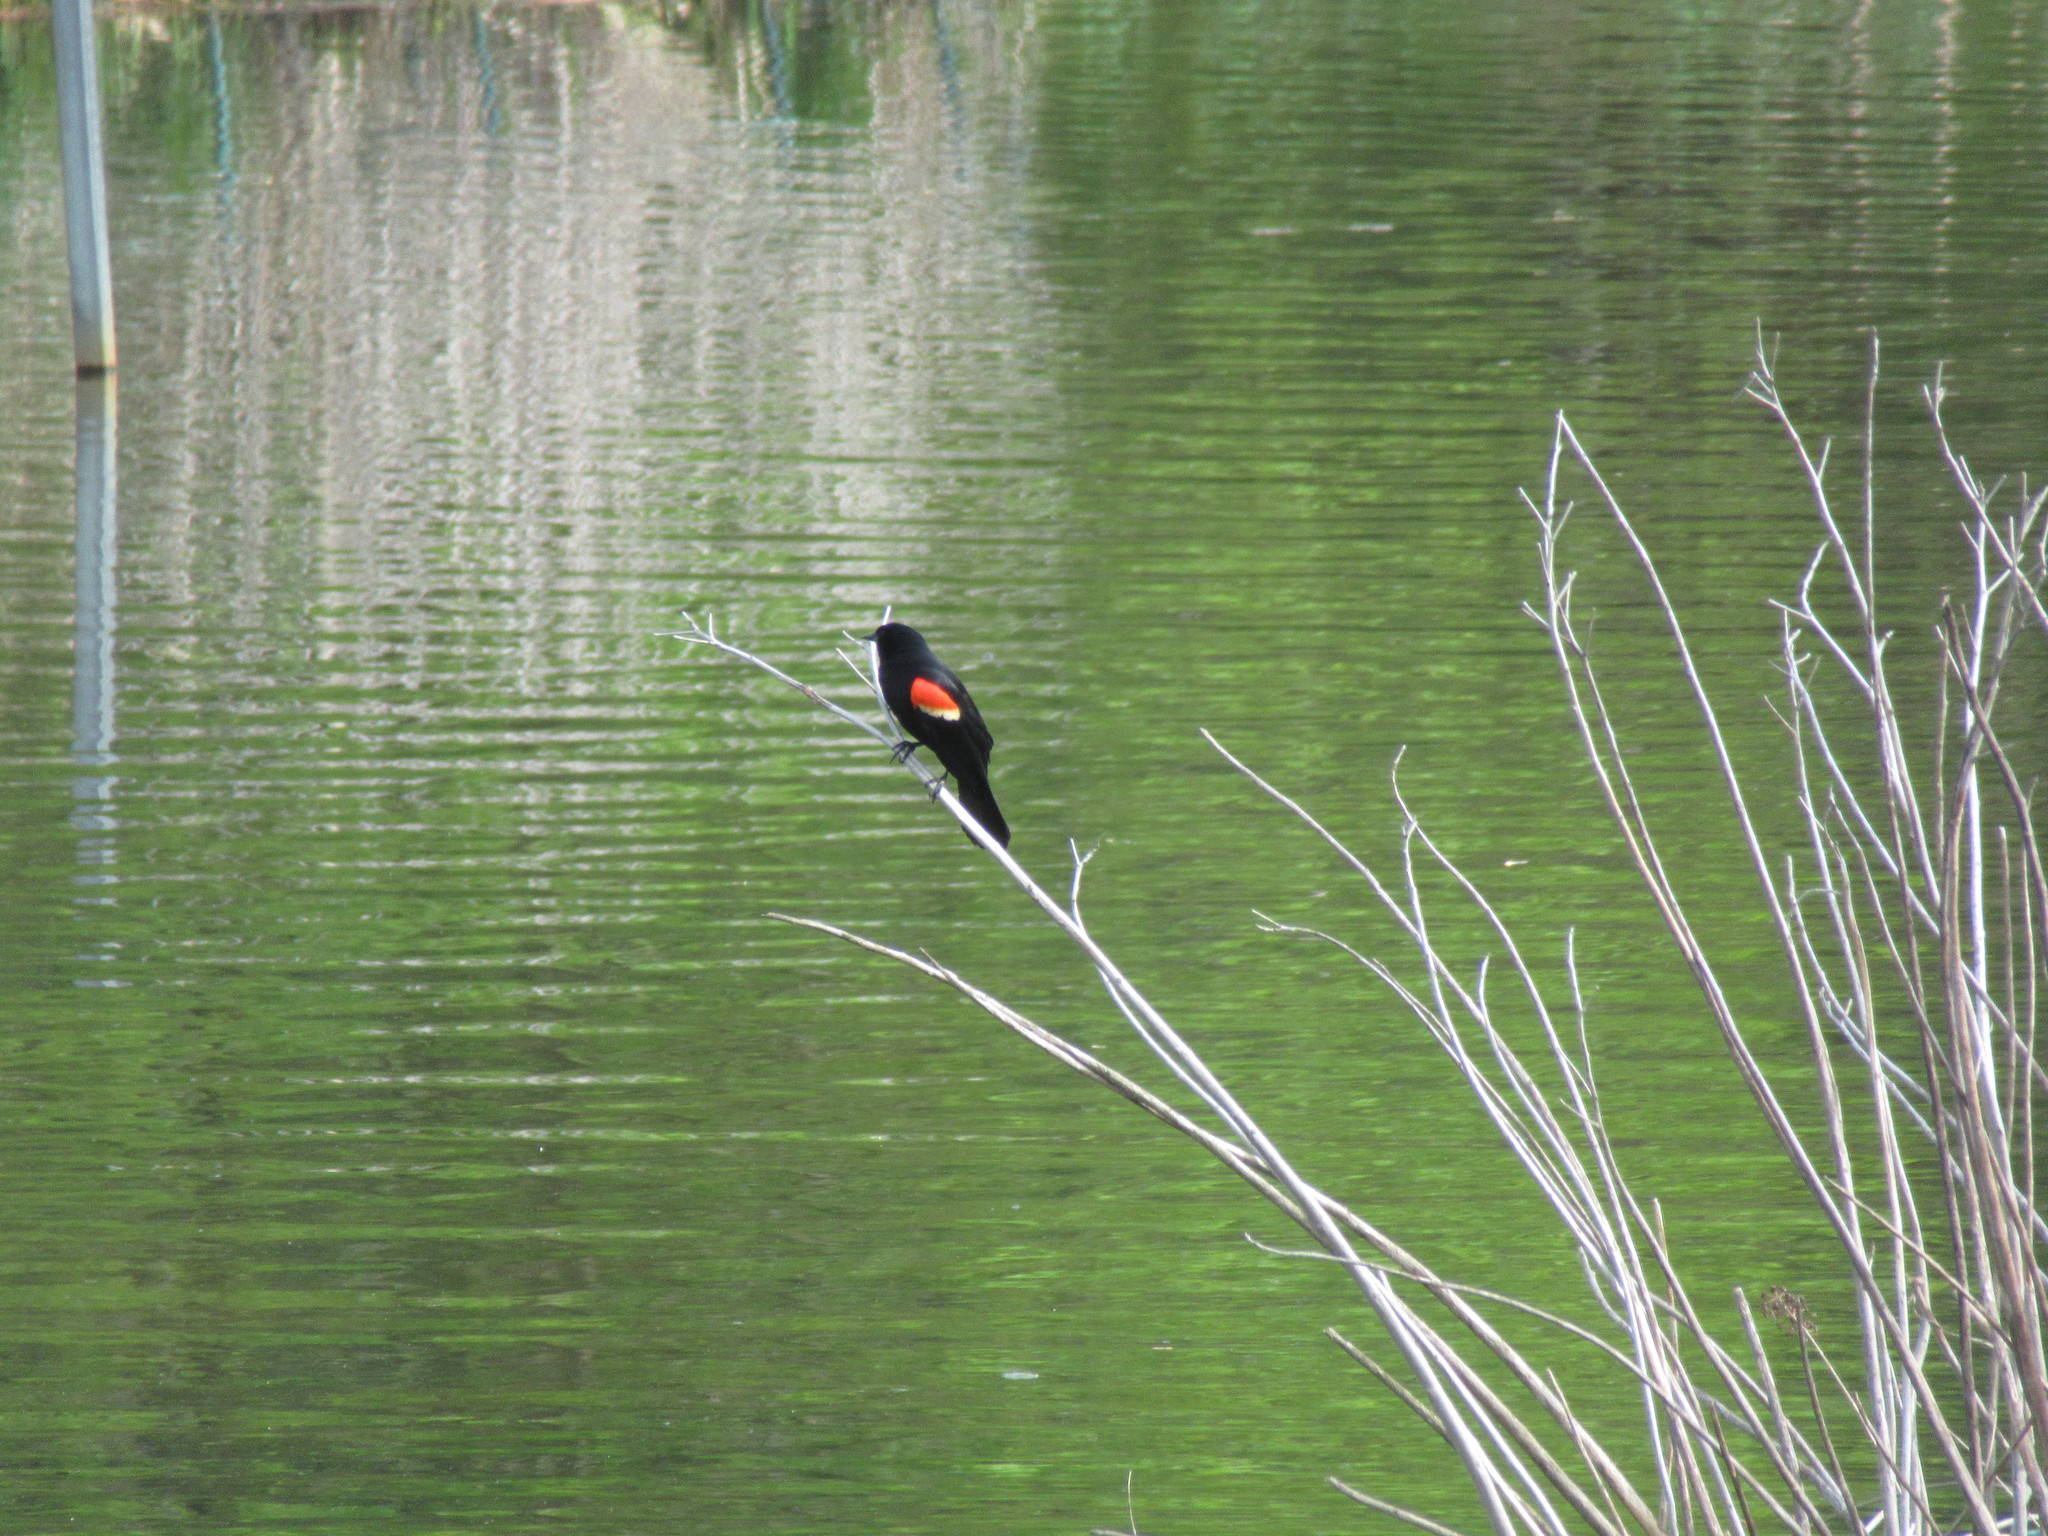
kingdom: Animalia
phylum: Chordata
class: Aves
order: Passeriformes
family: Icteridae
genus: Agelaius
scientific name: Agelaius phoeniceus
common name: Red-winged blackbird
